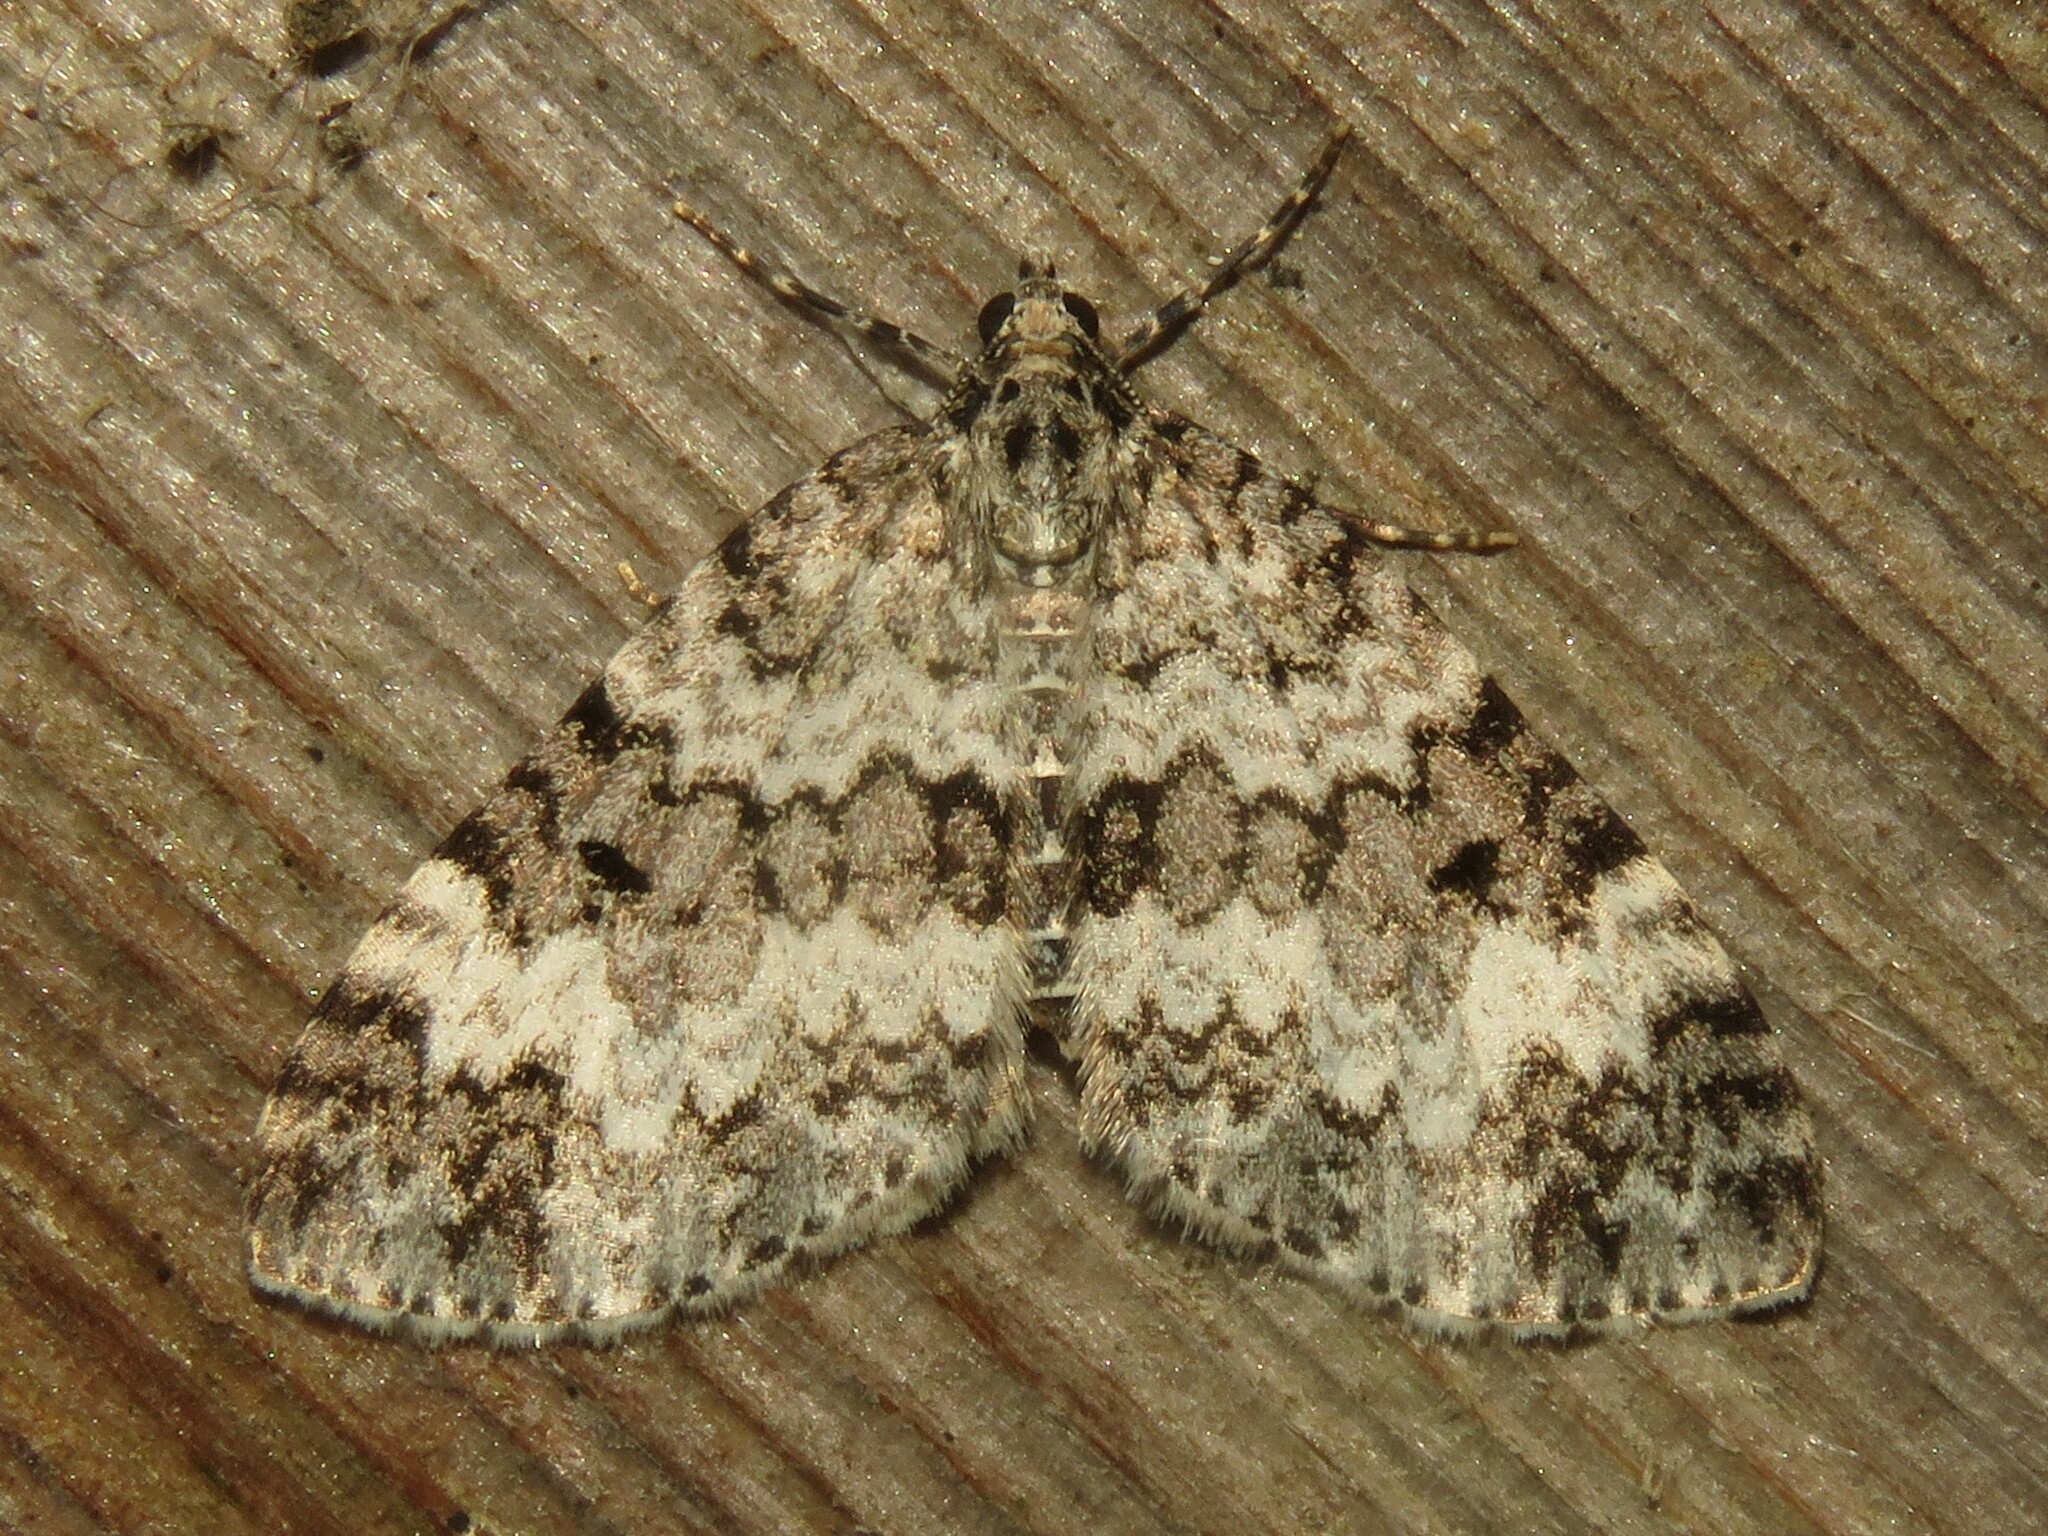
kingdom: Animalia
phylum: Arthropoda
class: Insecta
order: Lepidoptera
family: Geometridae
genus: Spargania
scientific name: Spargania magnoliata
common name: Double-banded carpet
